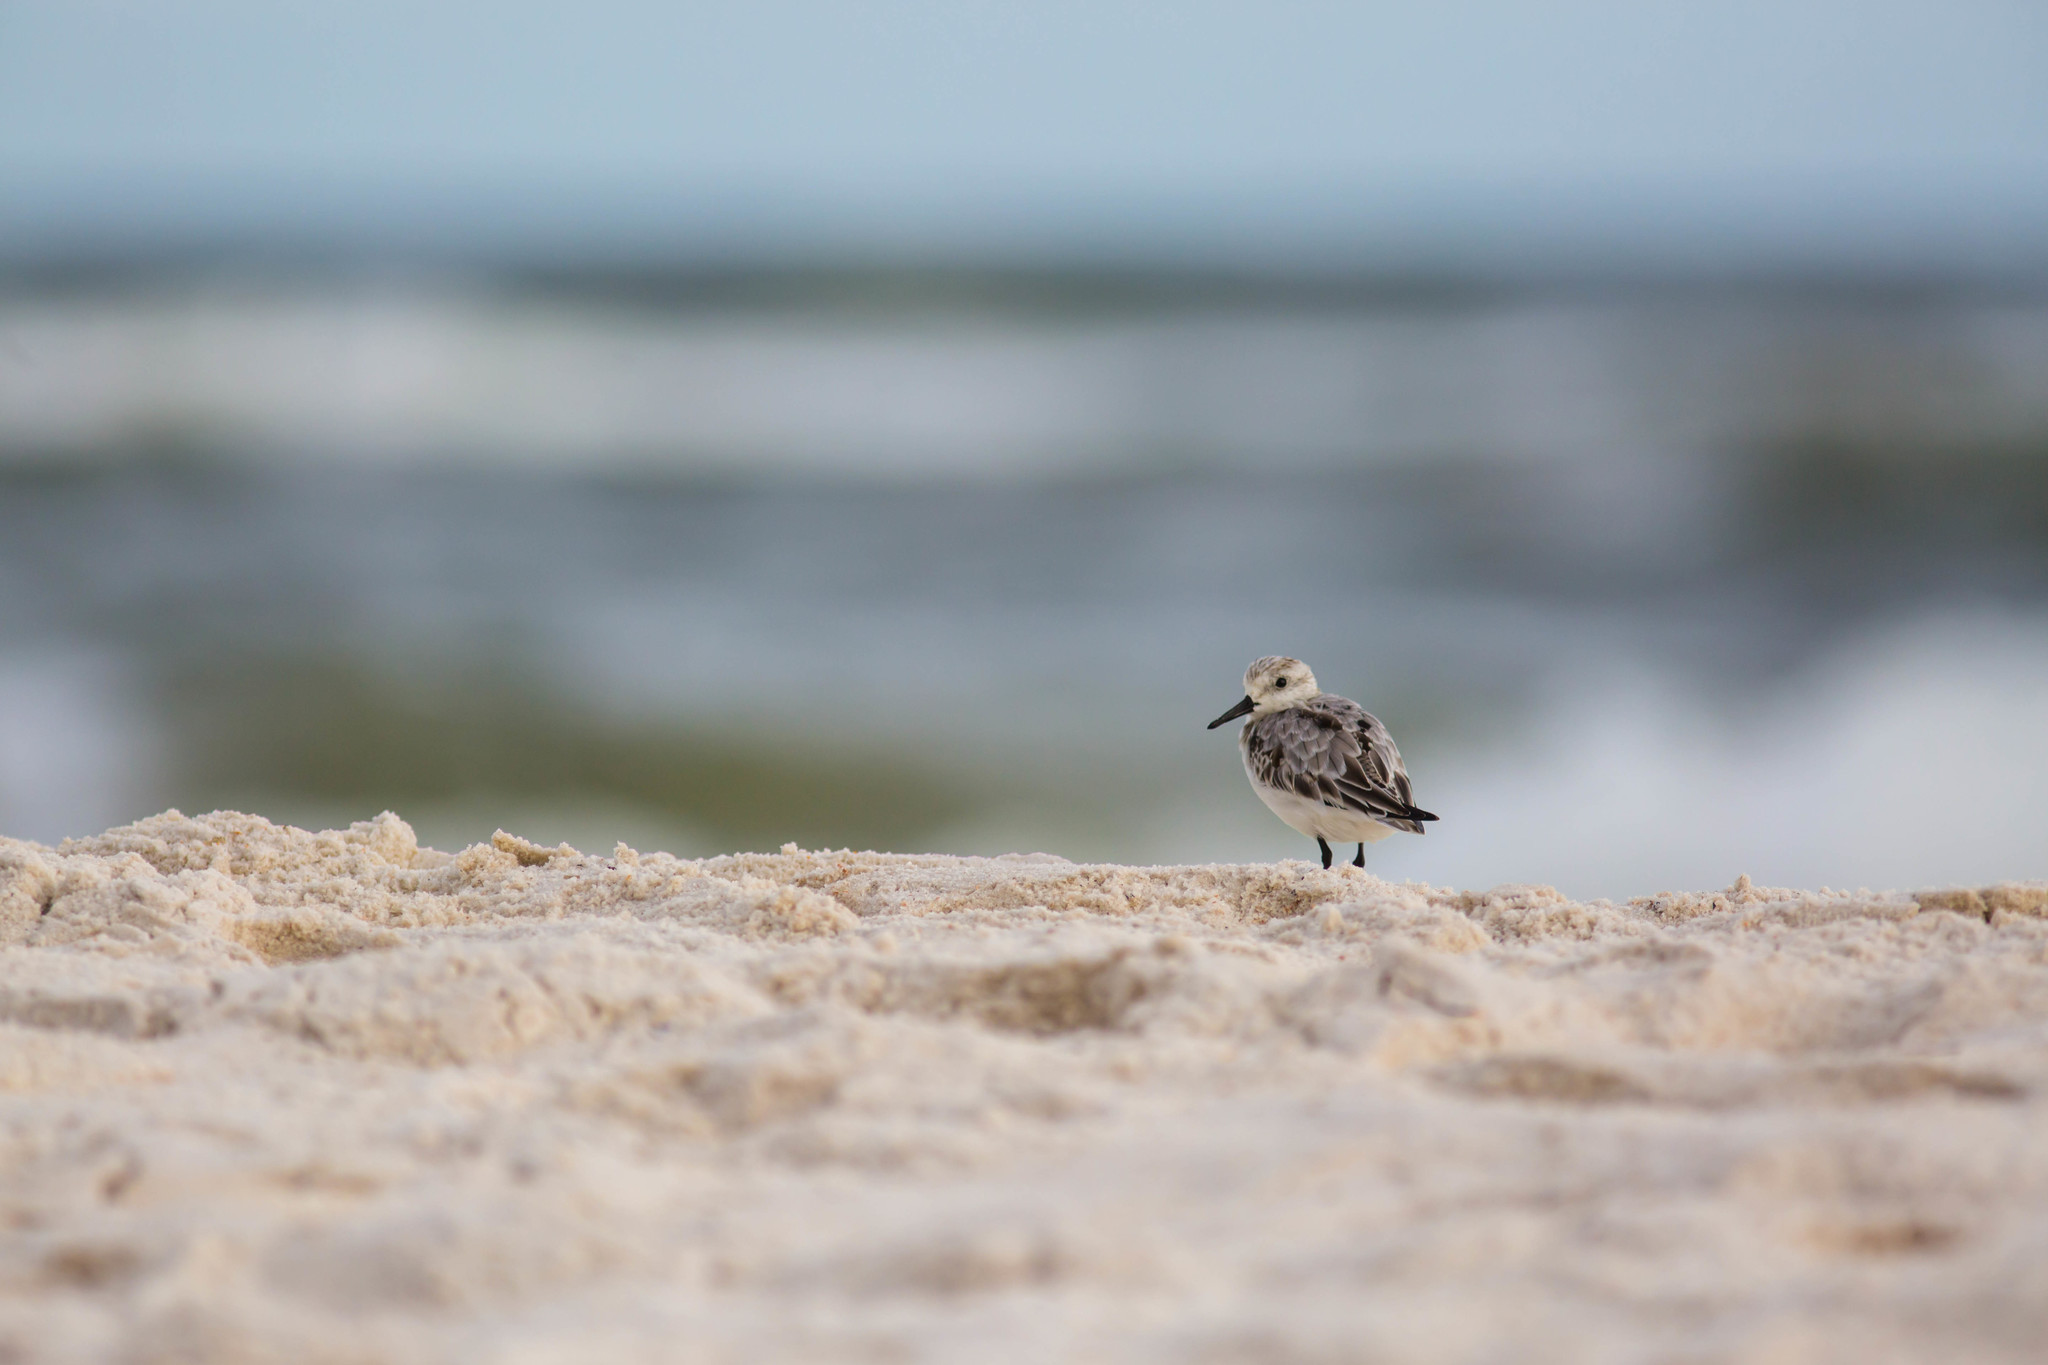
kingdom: Animalia
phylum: Chordata
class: Aves
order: Charadriiformes
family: Scolopacidae
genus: Calidris
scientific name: Calidris alba
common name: Sanderling
